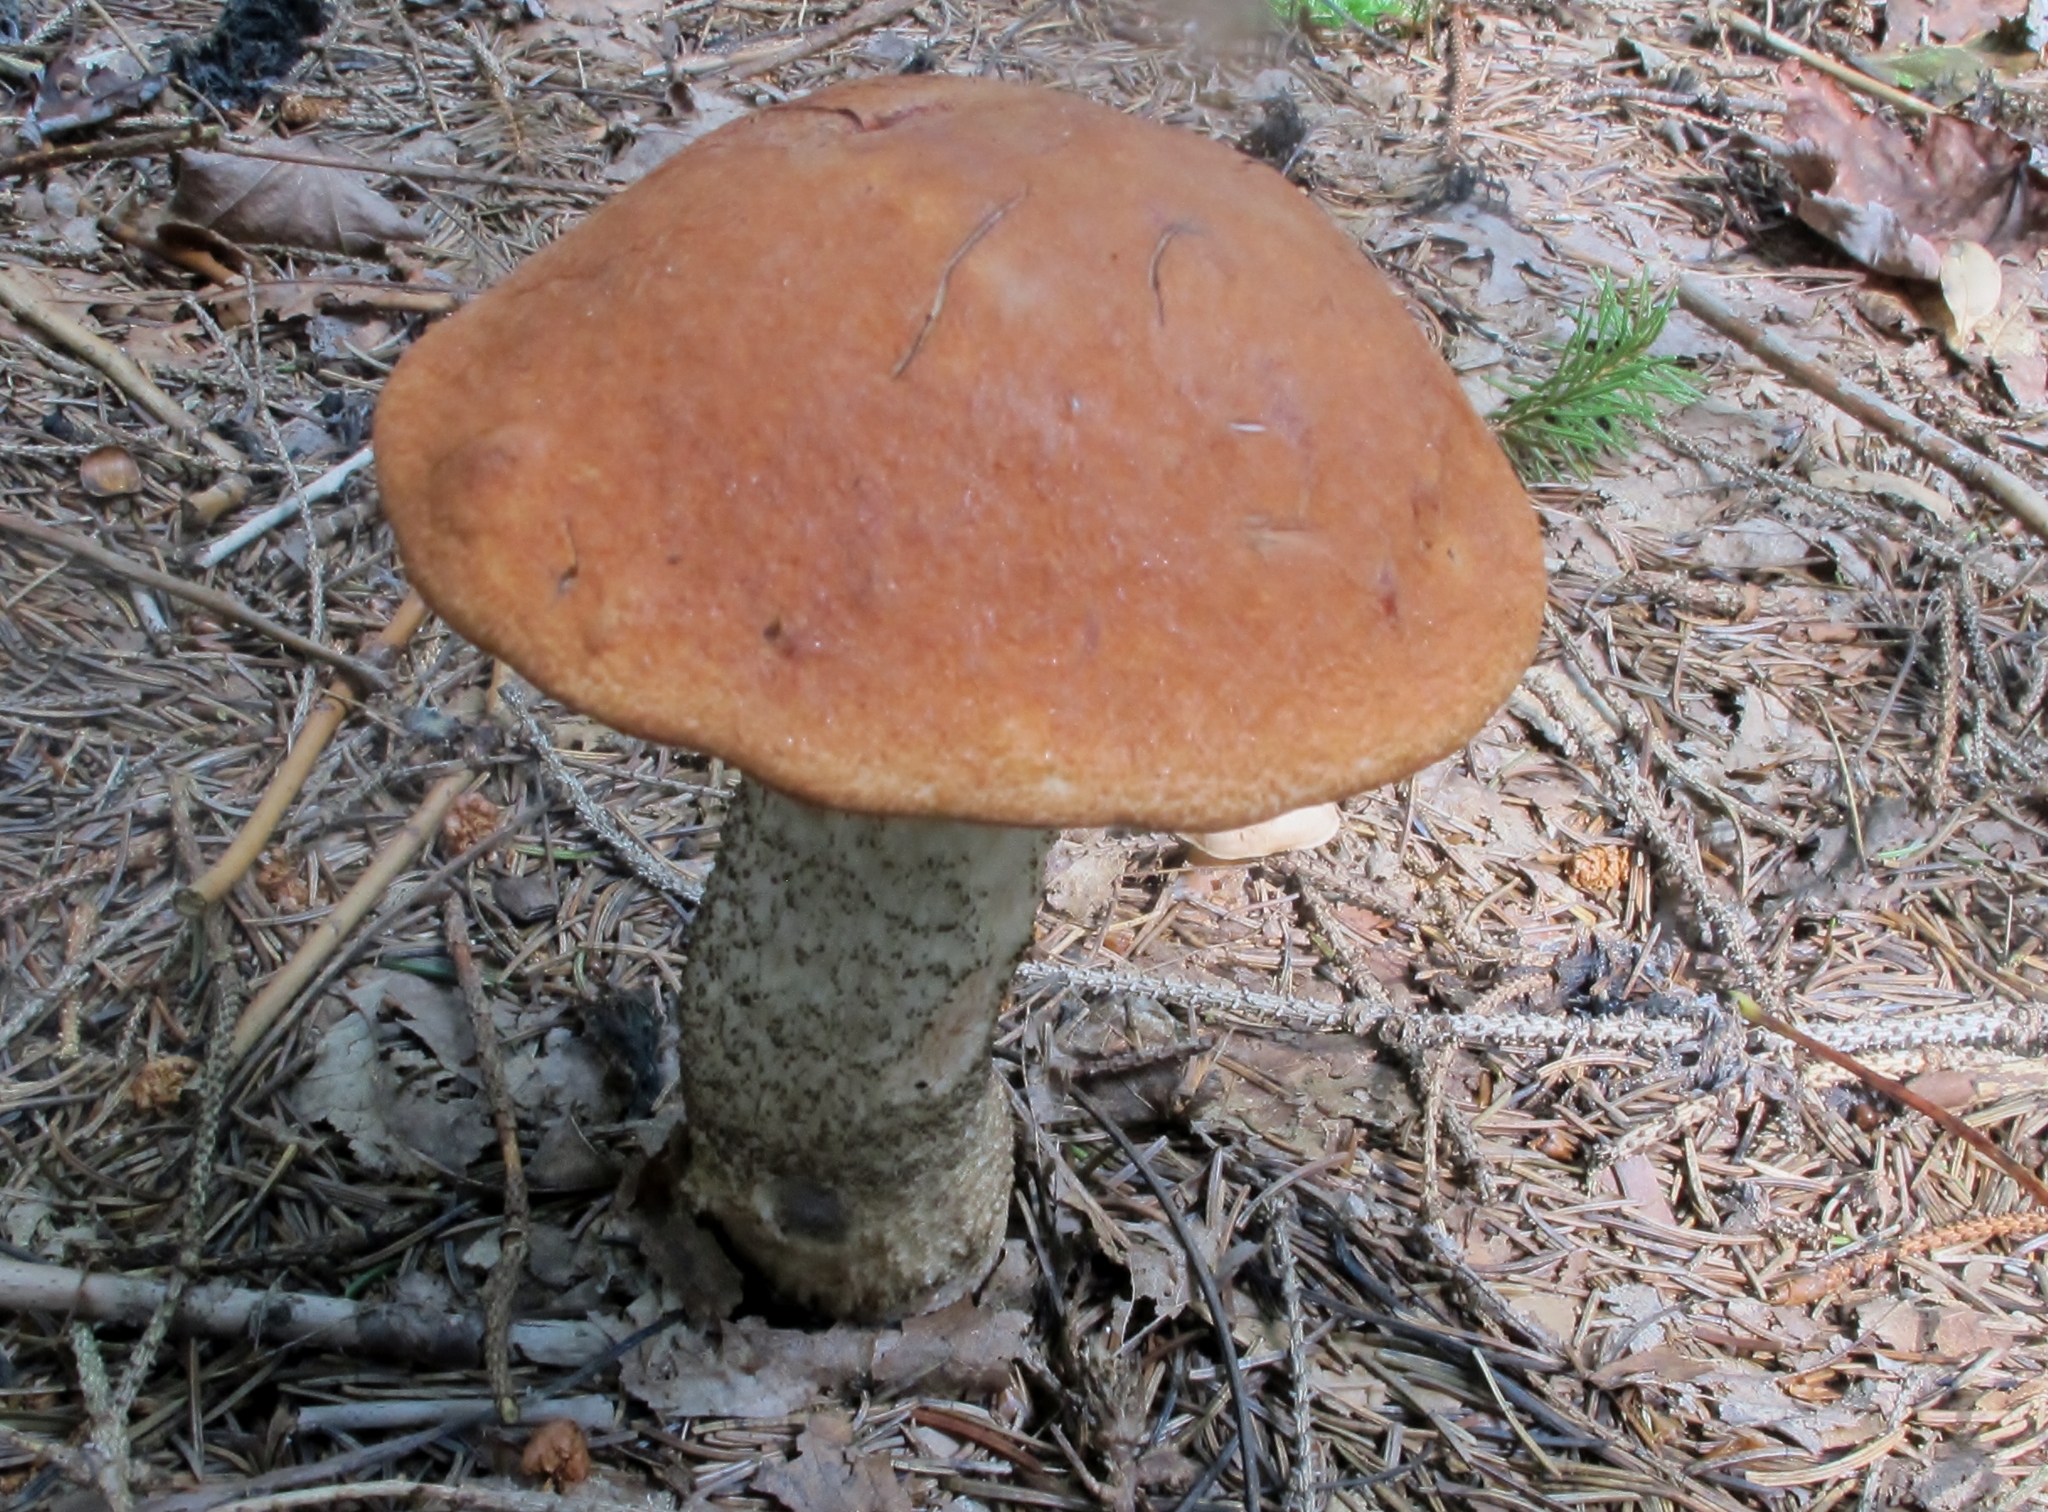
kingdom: Fungi
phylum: Basidiomycota
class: Agaricomycetes
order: Boletales
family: Boletaceae
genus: Leccinum
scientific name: Leccinum piceinum
